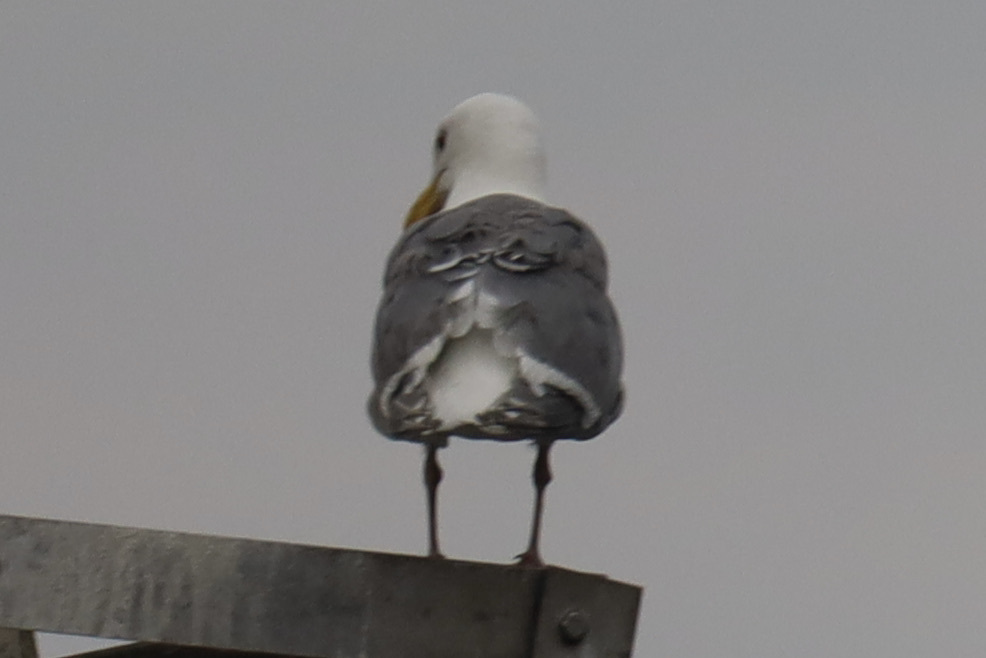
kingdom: Animalia
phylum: Chordata
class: Aves
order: Charadriiformes
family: Laridae
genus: Larus
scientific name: Larus
